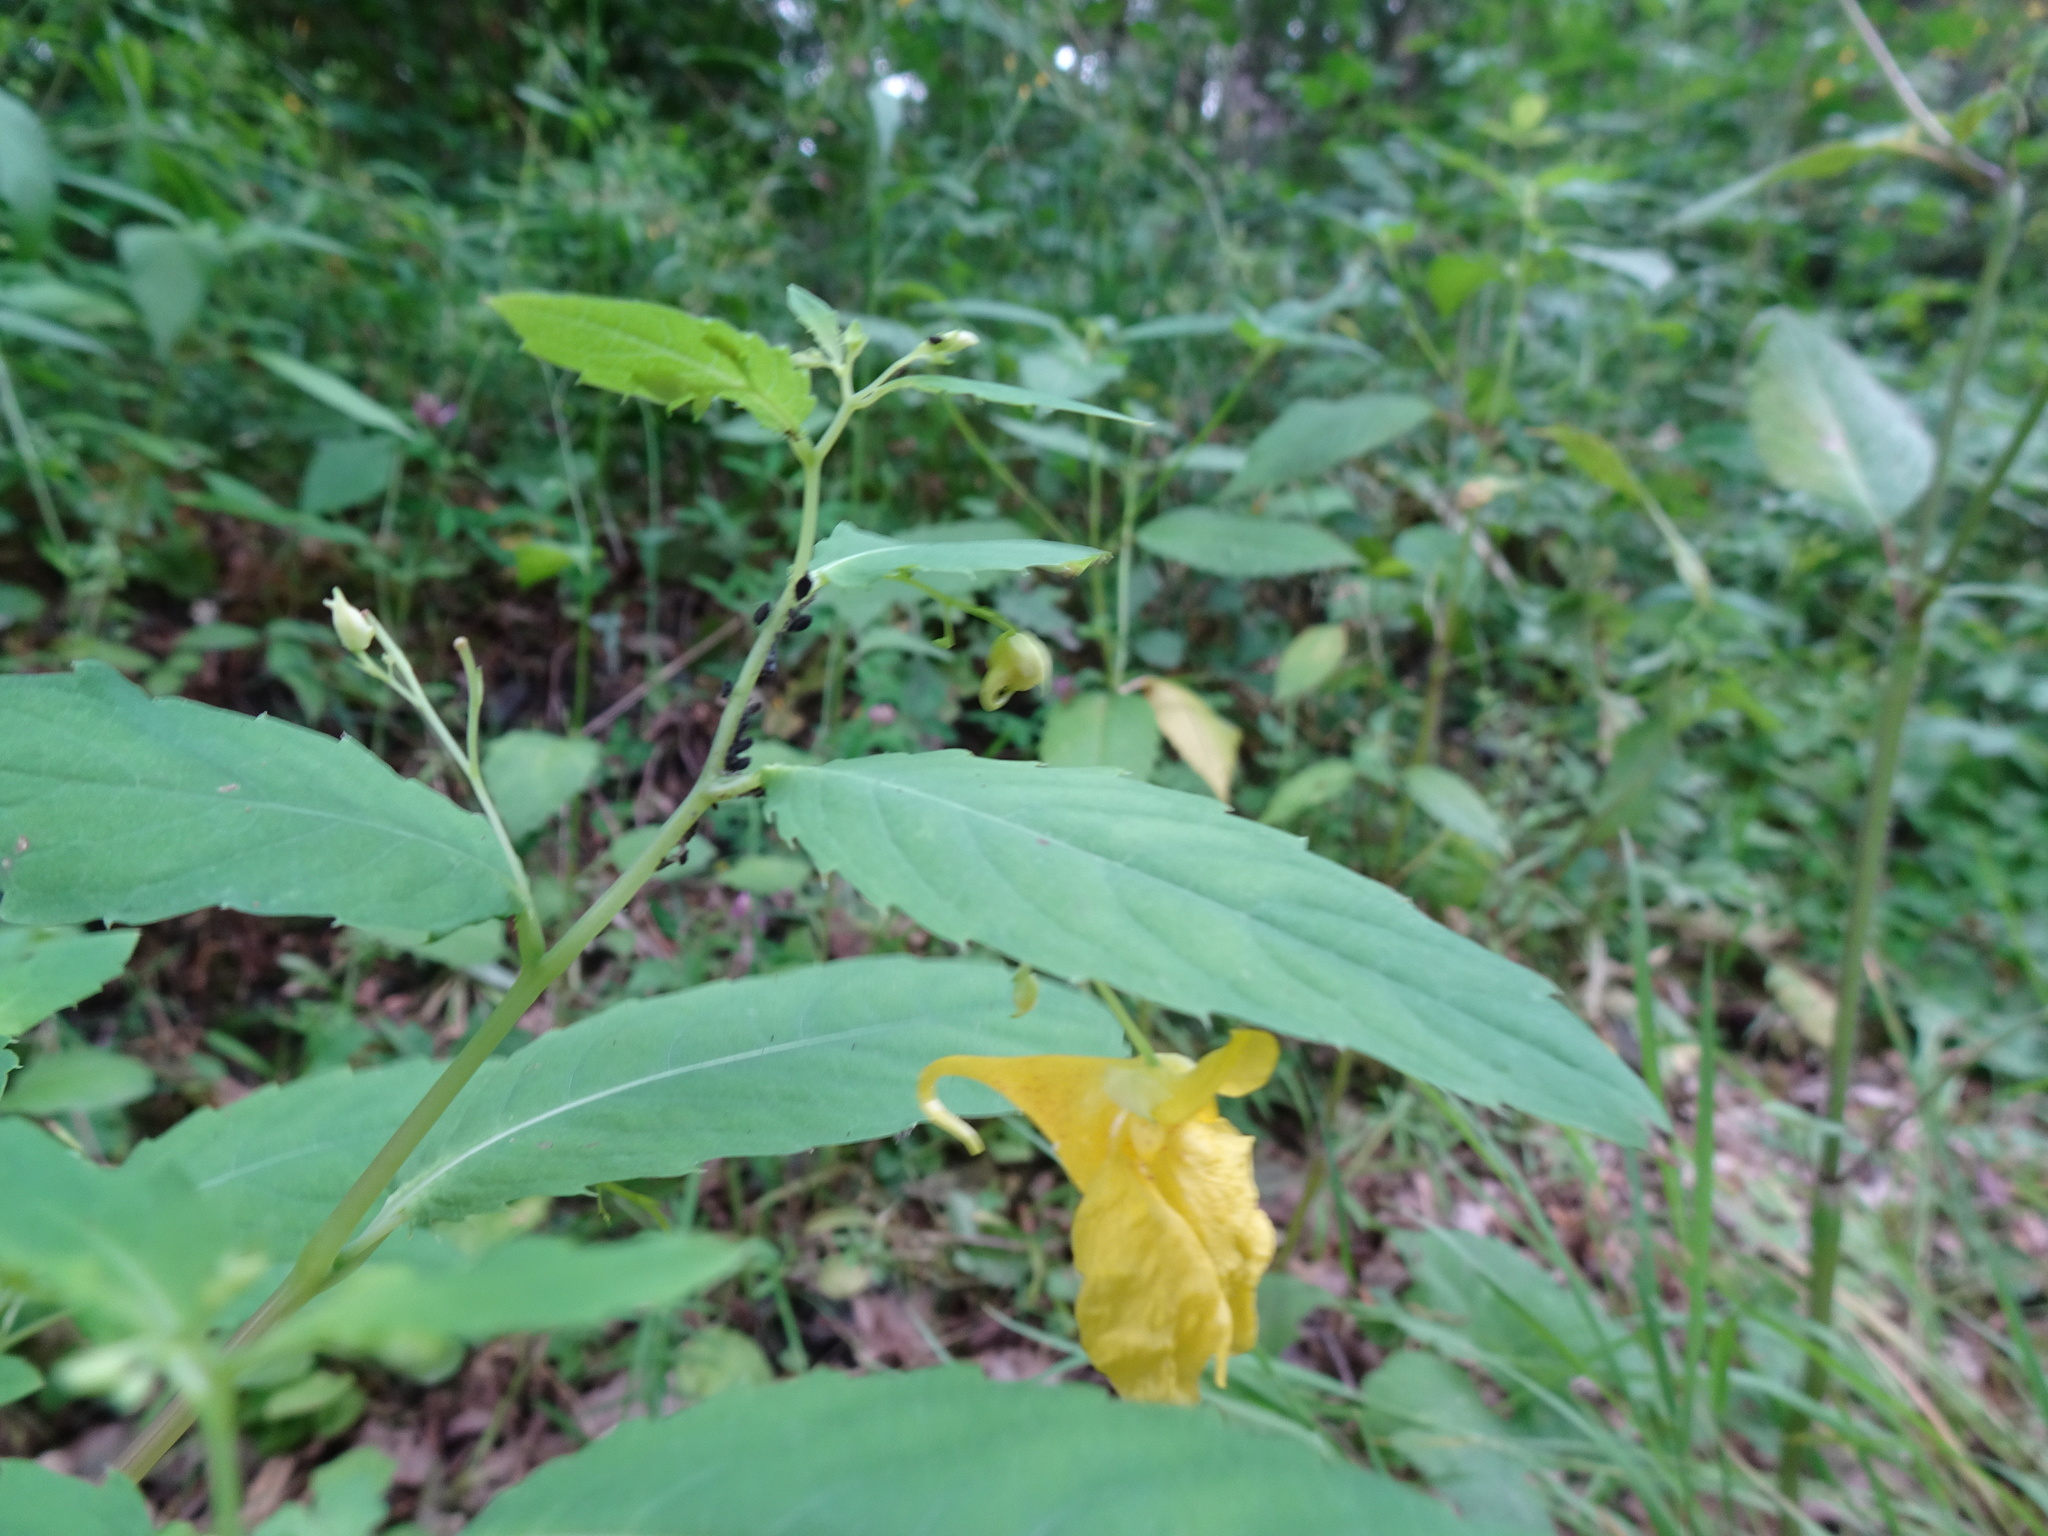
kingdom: Plantae
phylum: Tracheophyta
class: Magnoliopsida
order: Ericales
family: Balsaminaceae
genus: Impatiens
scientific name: Impatiens noli-tangere
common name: Touch-me-not balsam
